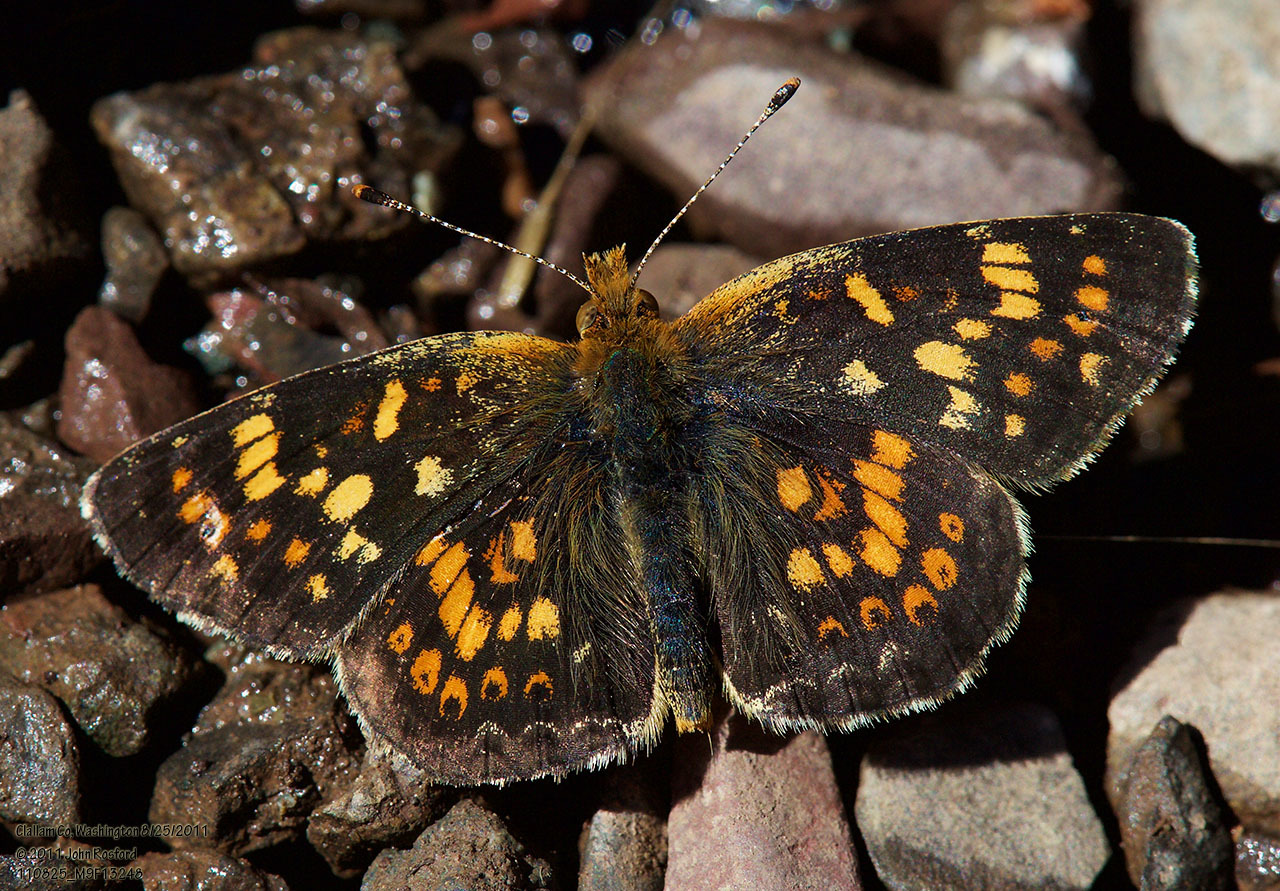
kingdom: Animalia
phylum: Arthropoda
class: Insecta
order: Lepidoptera
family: Nymphalidae
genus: Phyciodes
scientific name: Phyciodes tharos
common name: Pearl crescent
